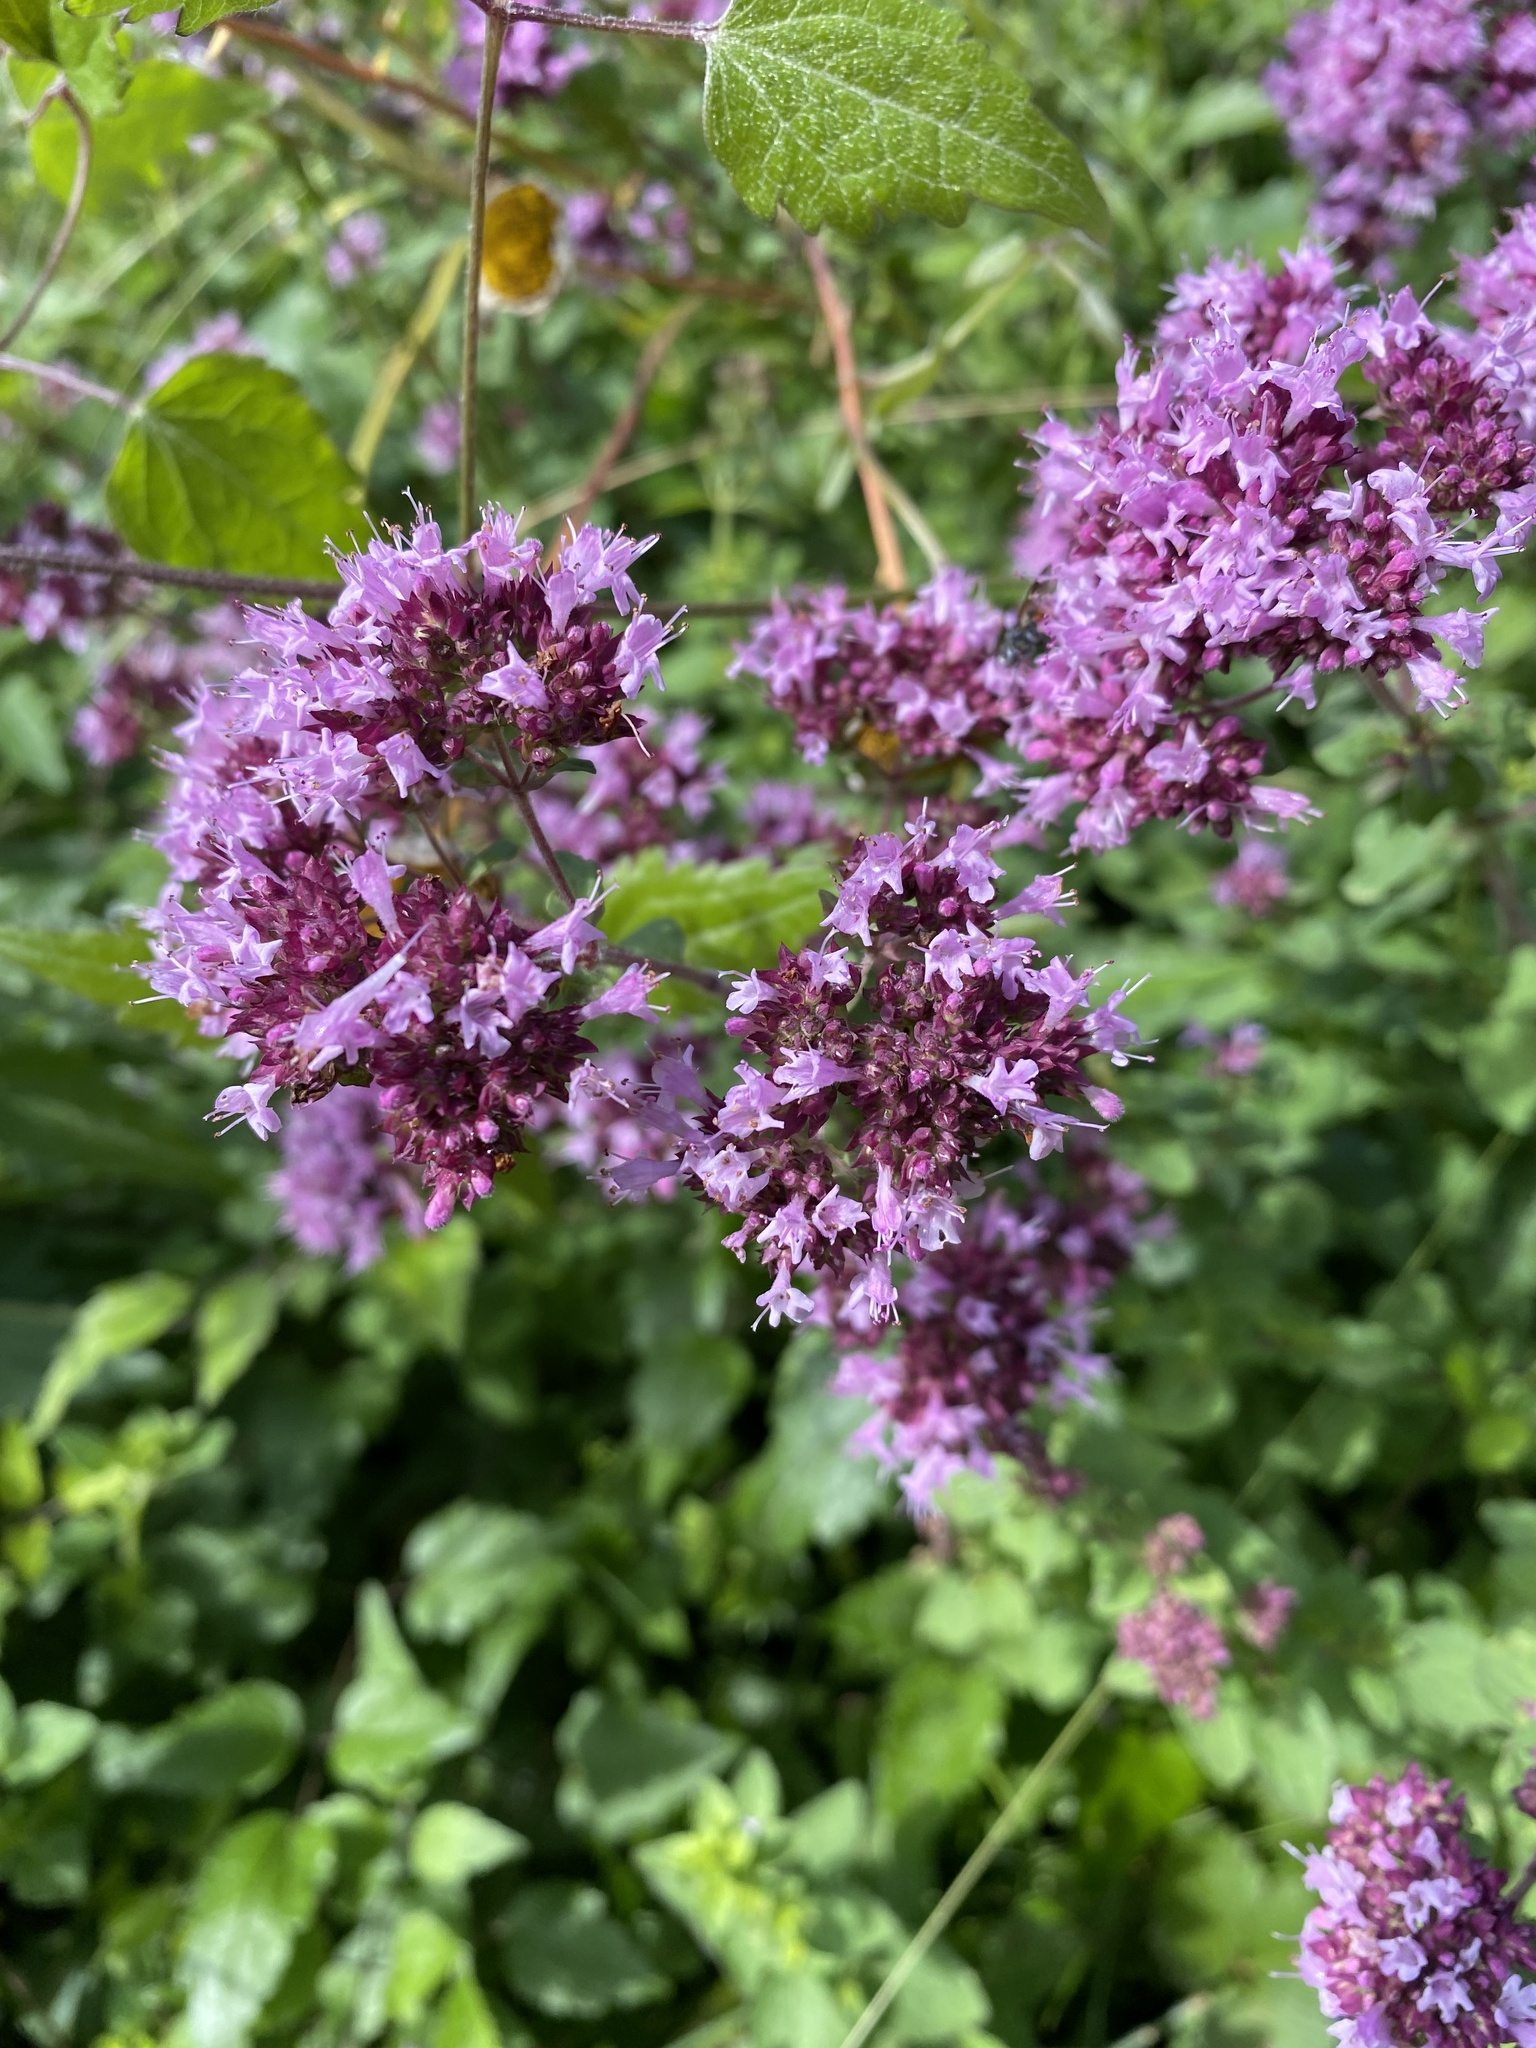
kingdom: Plantae
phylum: Tracheophyta
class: Magnoliopsida
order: Lamiales
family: Lamiaceae
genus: Origanum
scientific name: Origanum vulgare
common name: Wild marjoram
